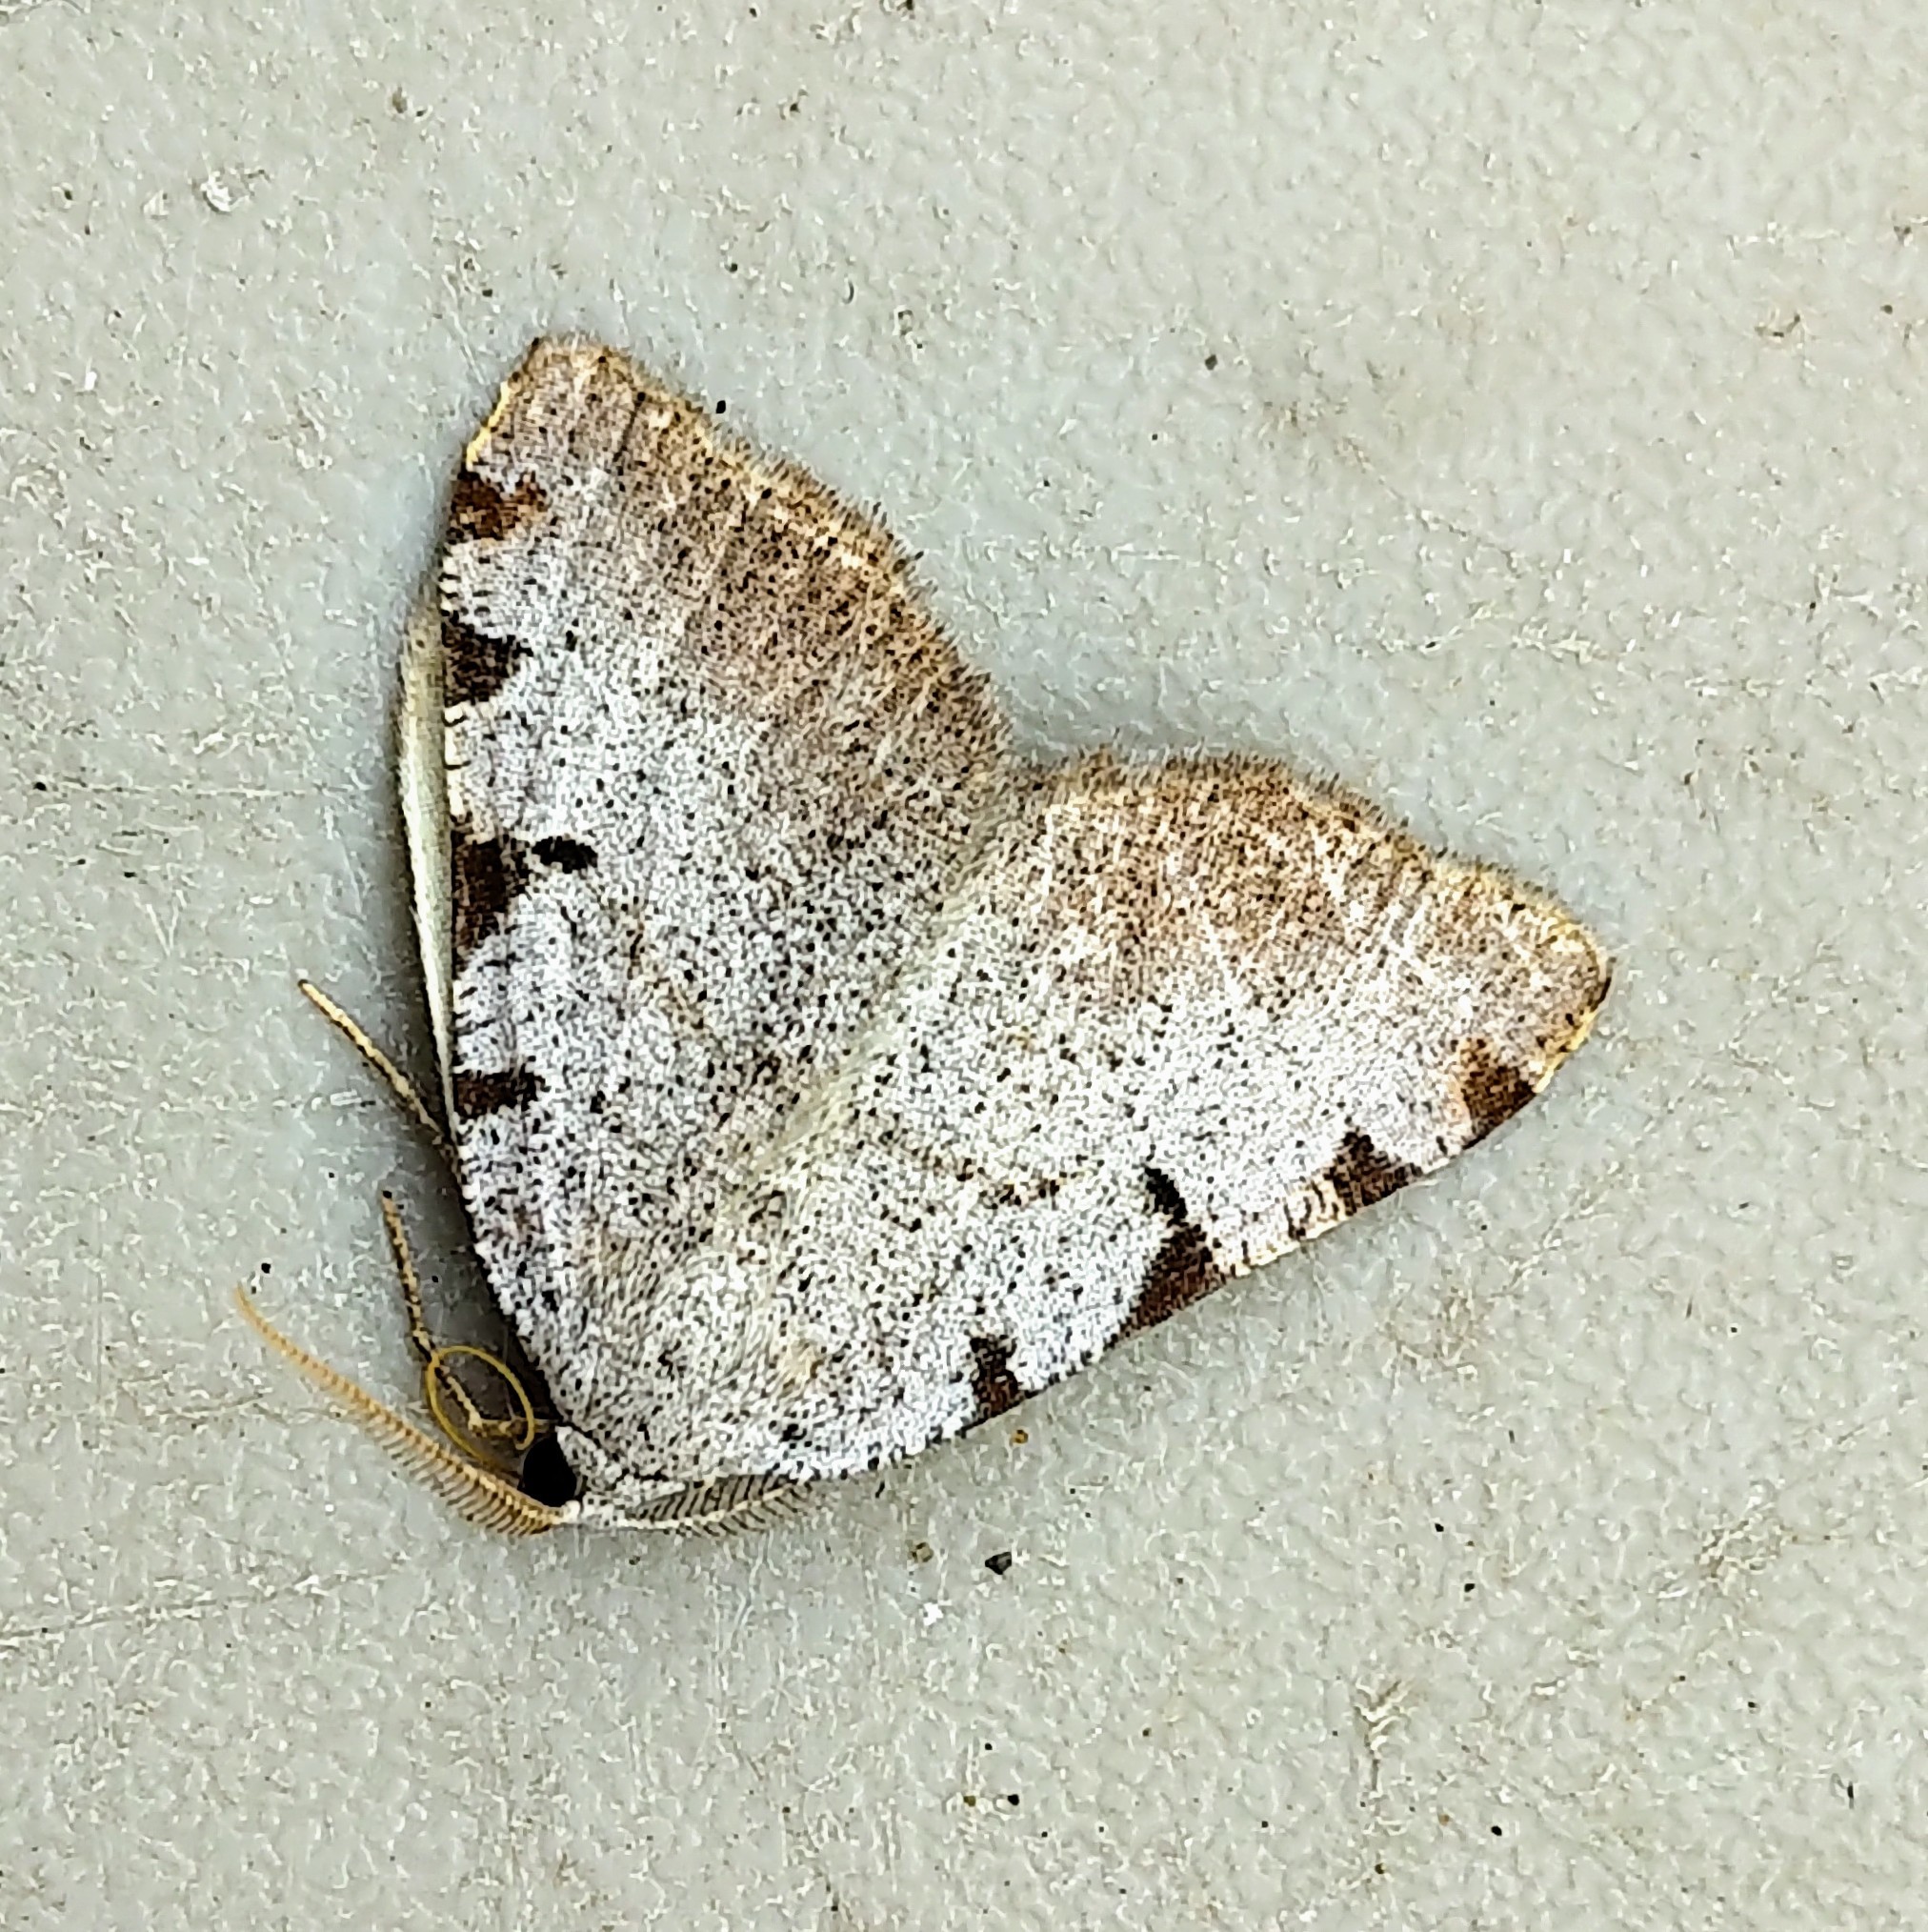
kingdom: Animalia
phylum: Arthropoda
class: Insecta
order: Lepidoptera
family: Geometridae
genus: Macaria
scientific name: Macaria coortaria
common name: Four-spotted granite
